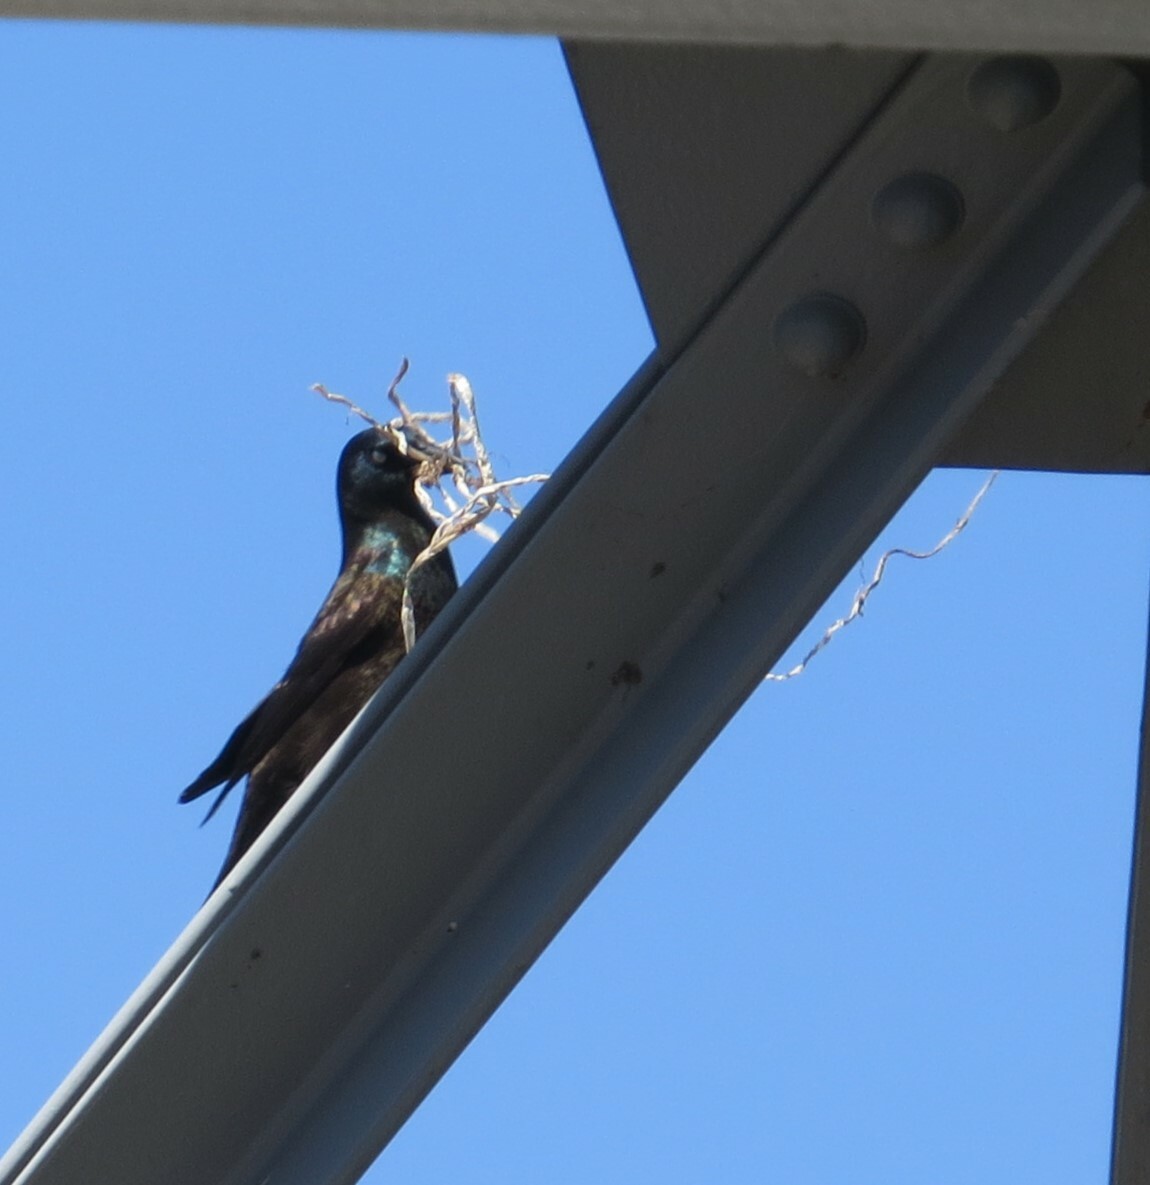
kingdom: Animalia
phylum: Chordata
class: Aves
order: Passeriformes
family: Icteridae
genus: Quiscalus
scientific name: Quiscalus quiscula
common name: Common grackle
